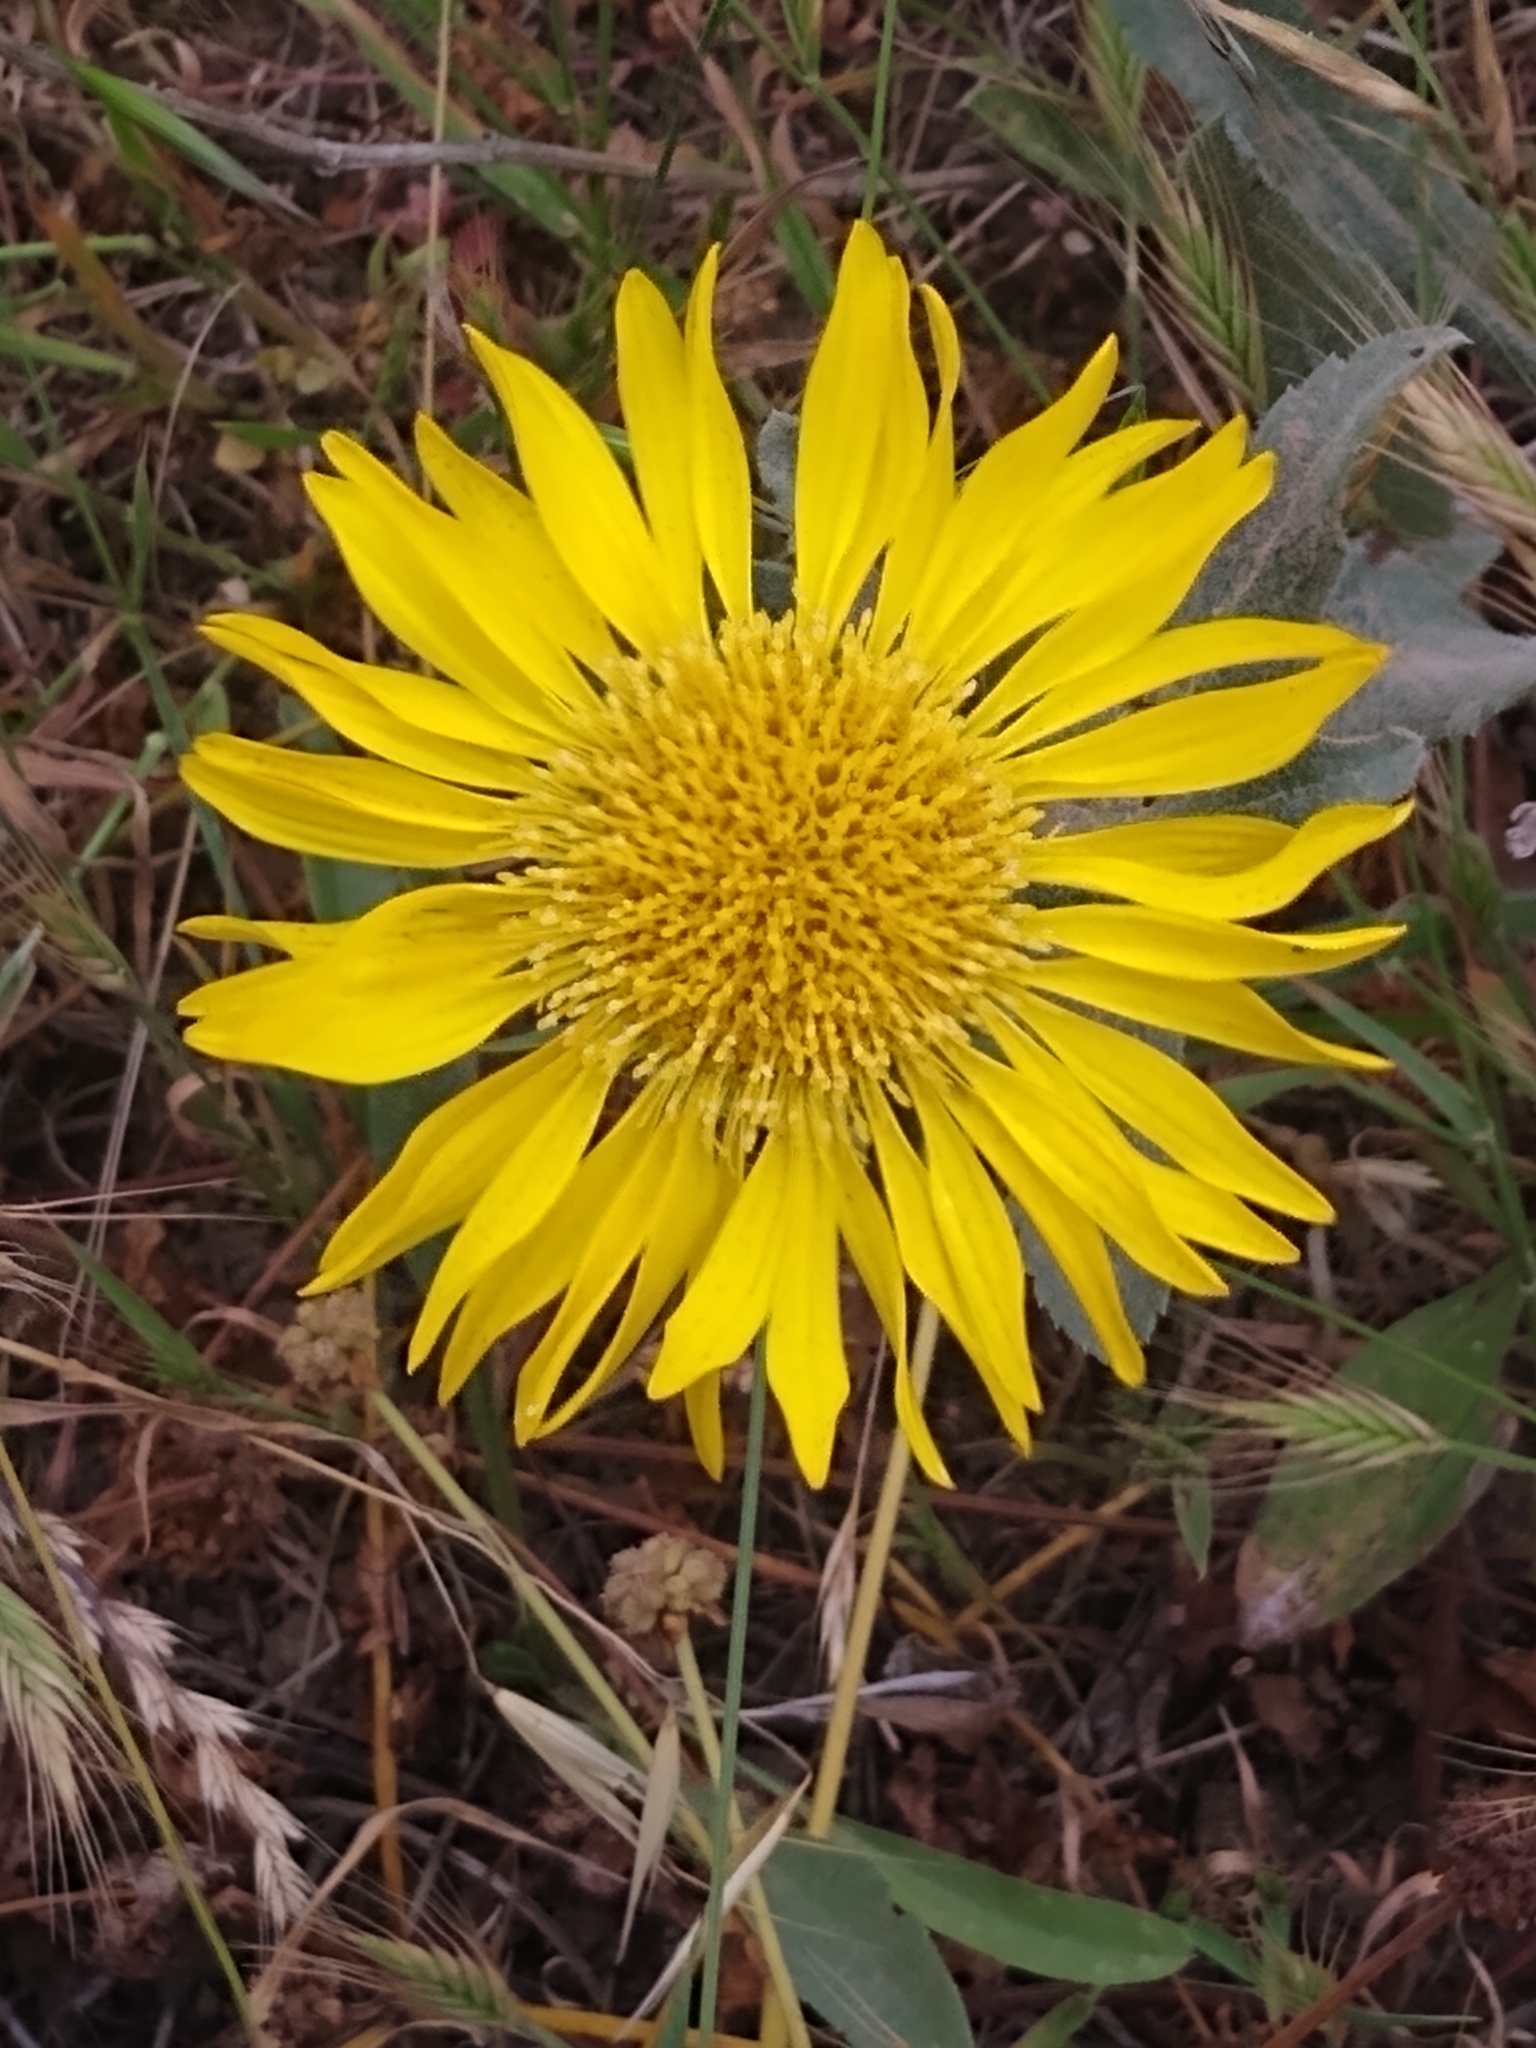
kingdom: Plantae
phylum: Tracheophyta
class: Magnoliopsida
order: Asterales
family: Asteraceae
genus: Grindelia
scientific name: Grindelia hirsutula
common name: Hairy gumweed
